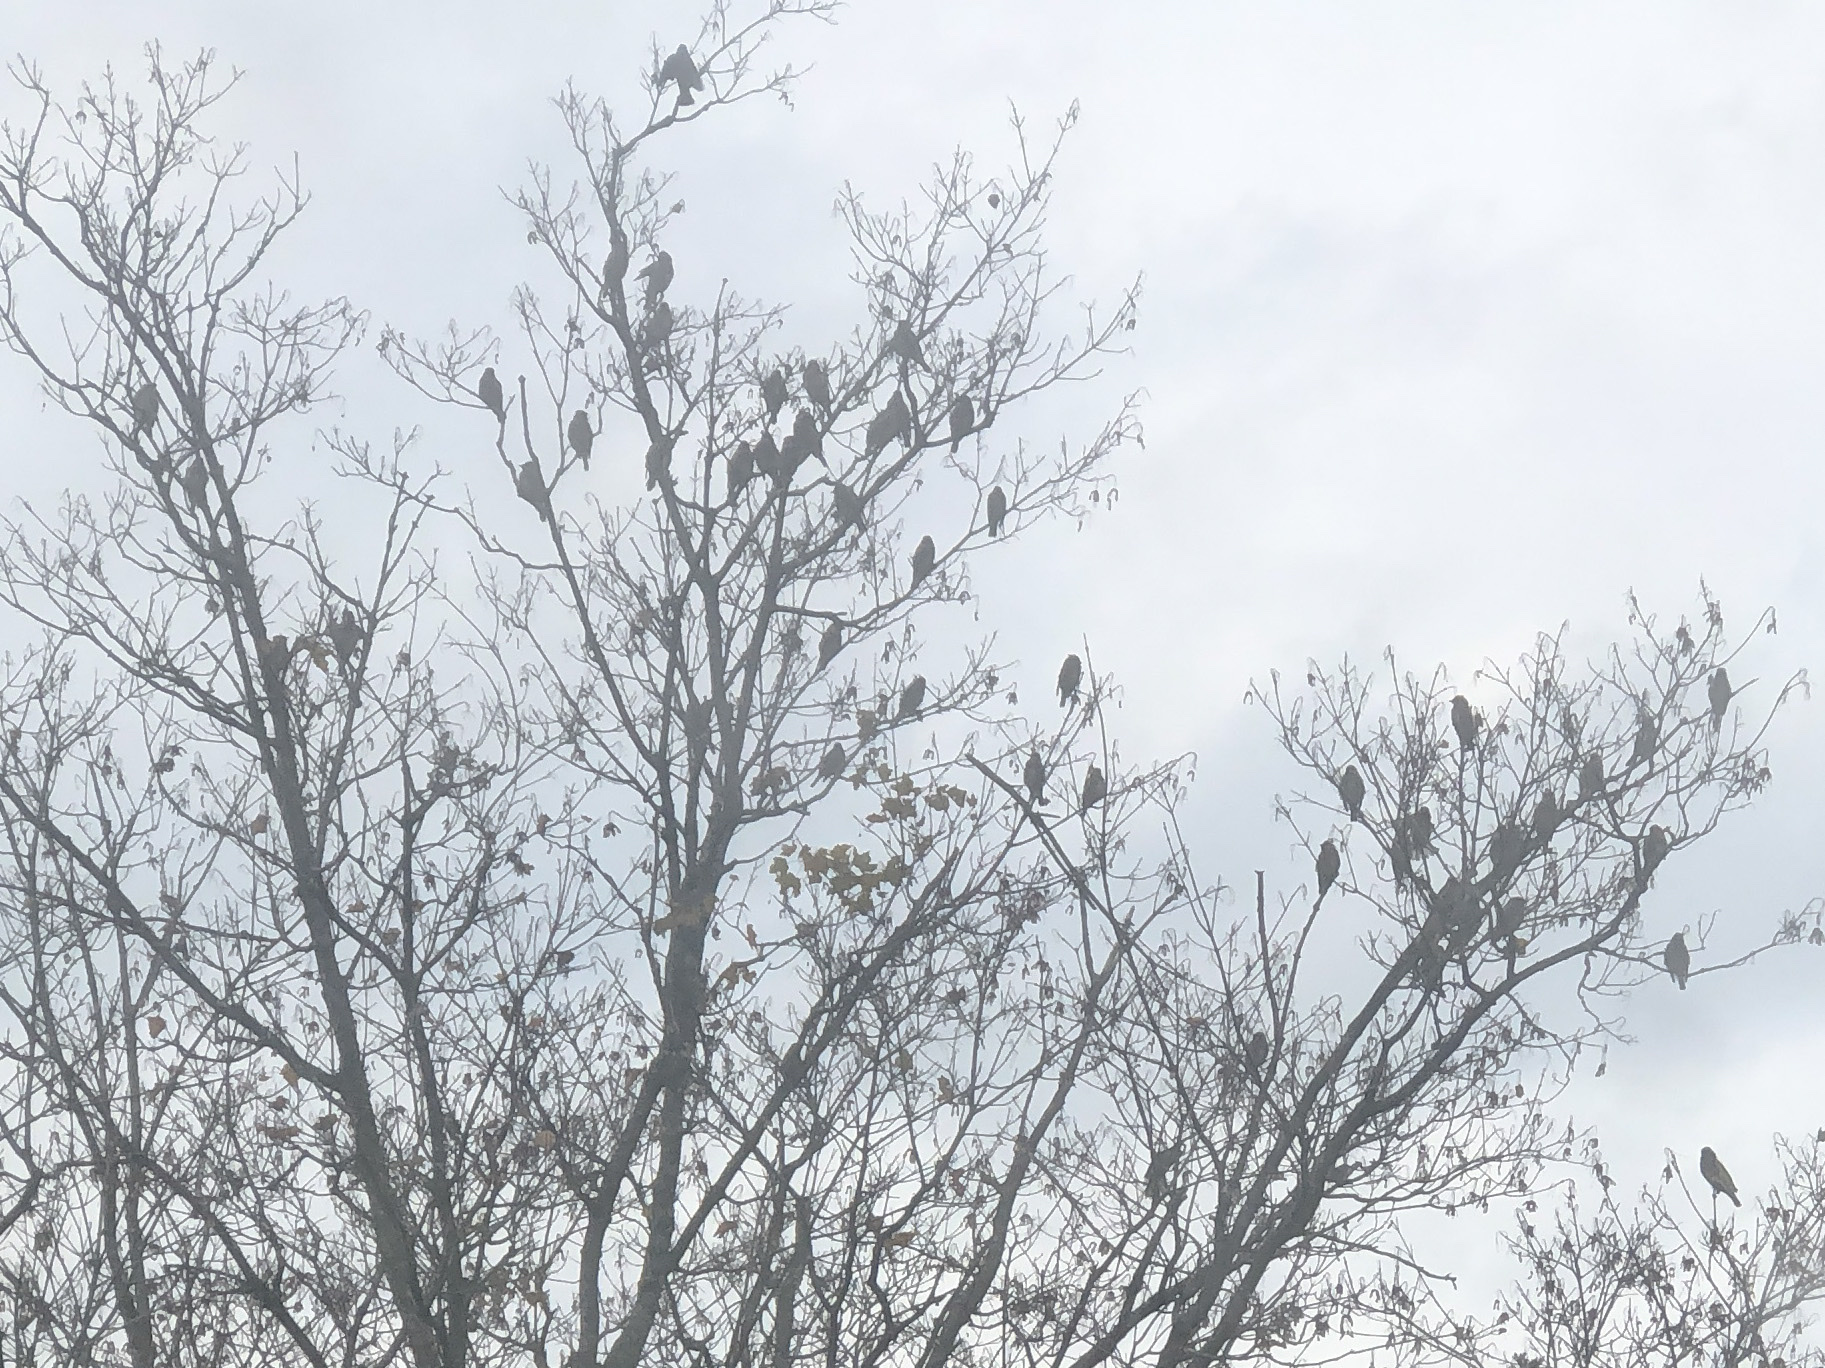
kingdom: Animalia
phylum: Chordata
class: Aves
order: Passeriformes
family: Bombycillidae
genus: Bombycilla
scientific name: Bombycilla cedrorum
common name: Cedar waxwing
